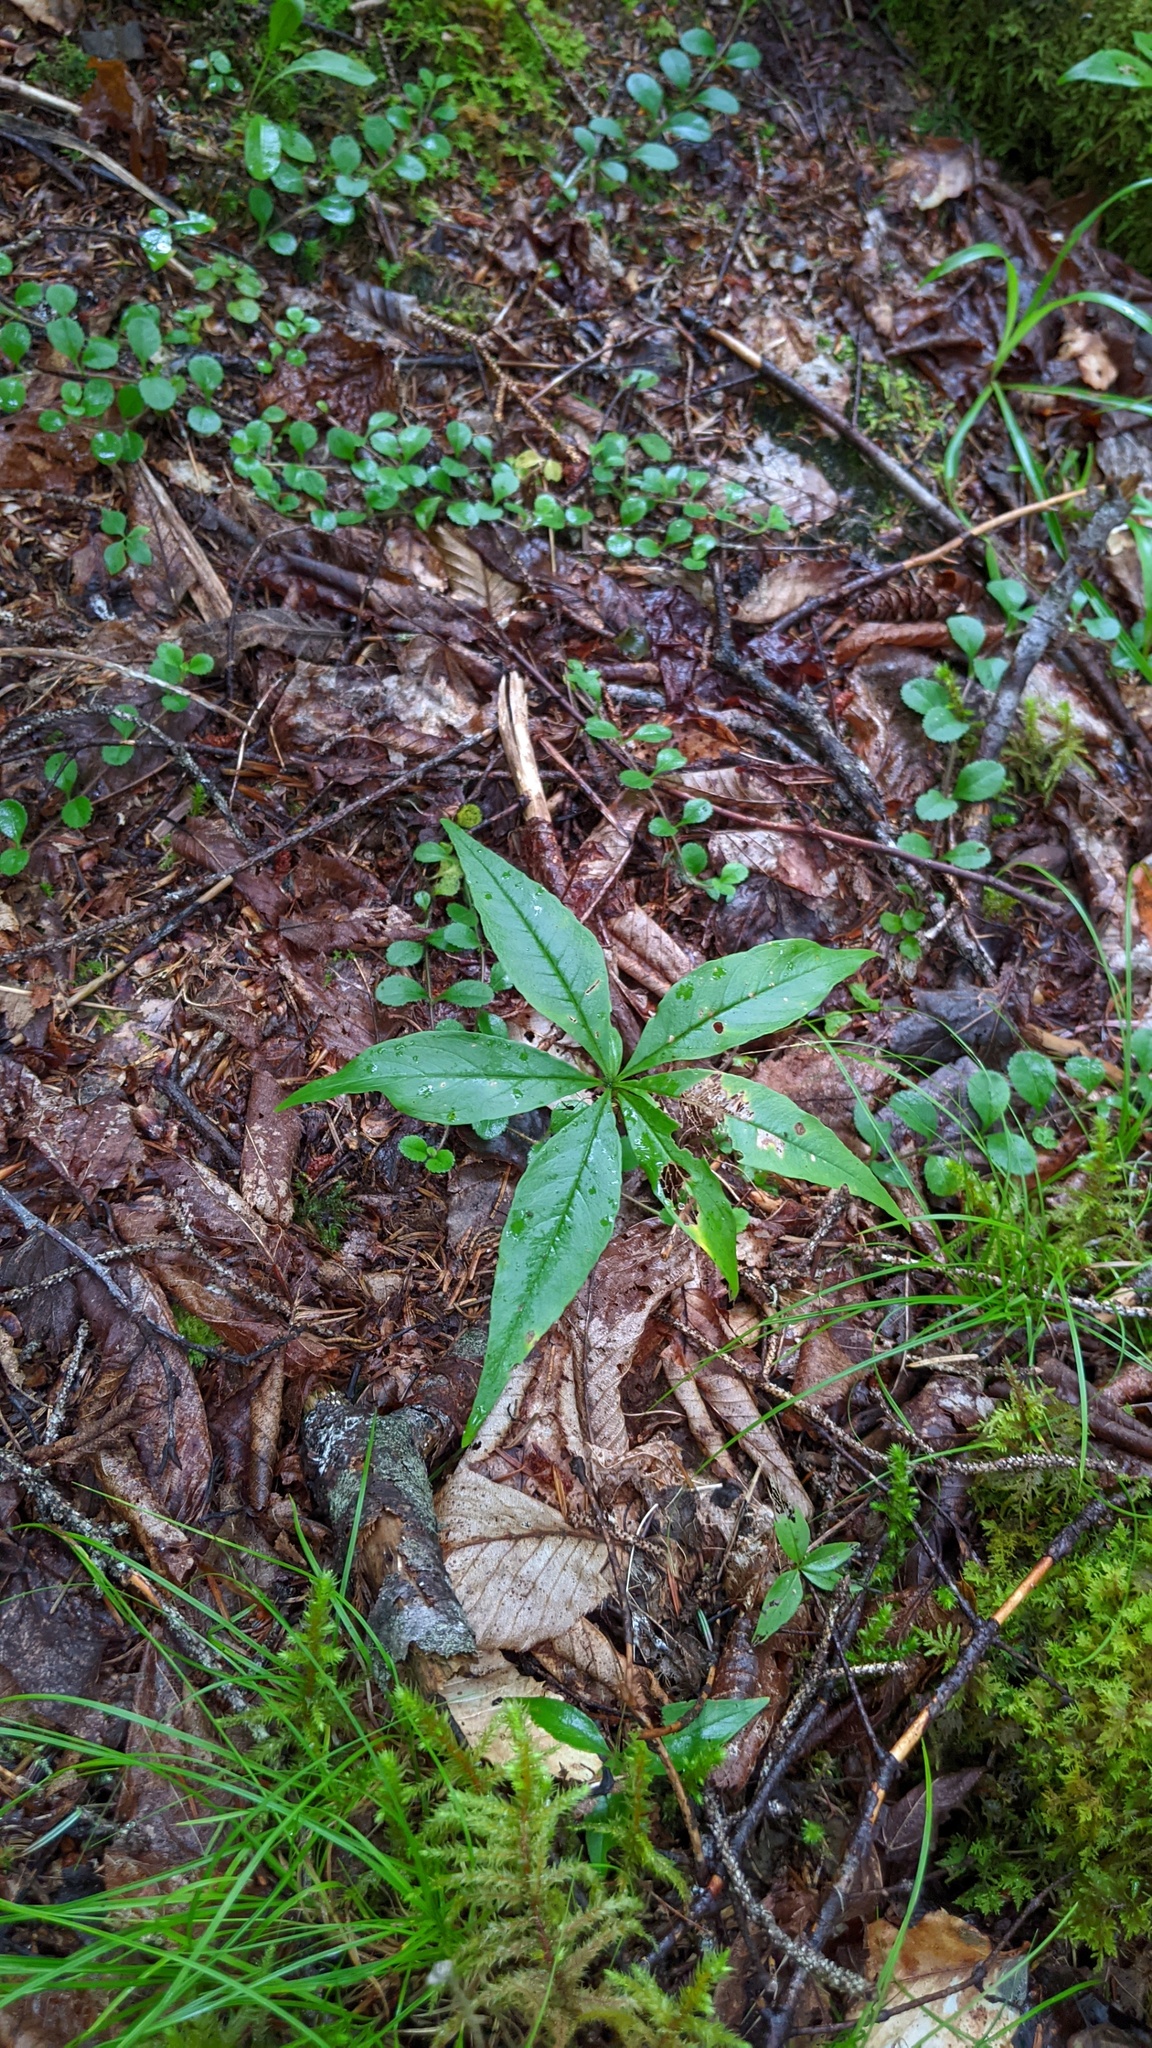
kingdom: Plantae
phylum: Tracheophyta
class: Magnoliopsida
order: Ericales
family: Primulaceae
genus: Lysimachia
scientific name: Lysimachia borealis
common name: American starflower
